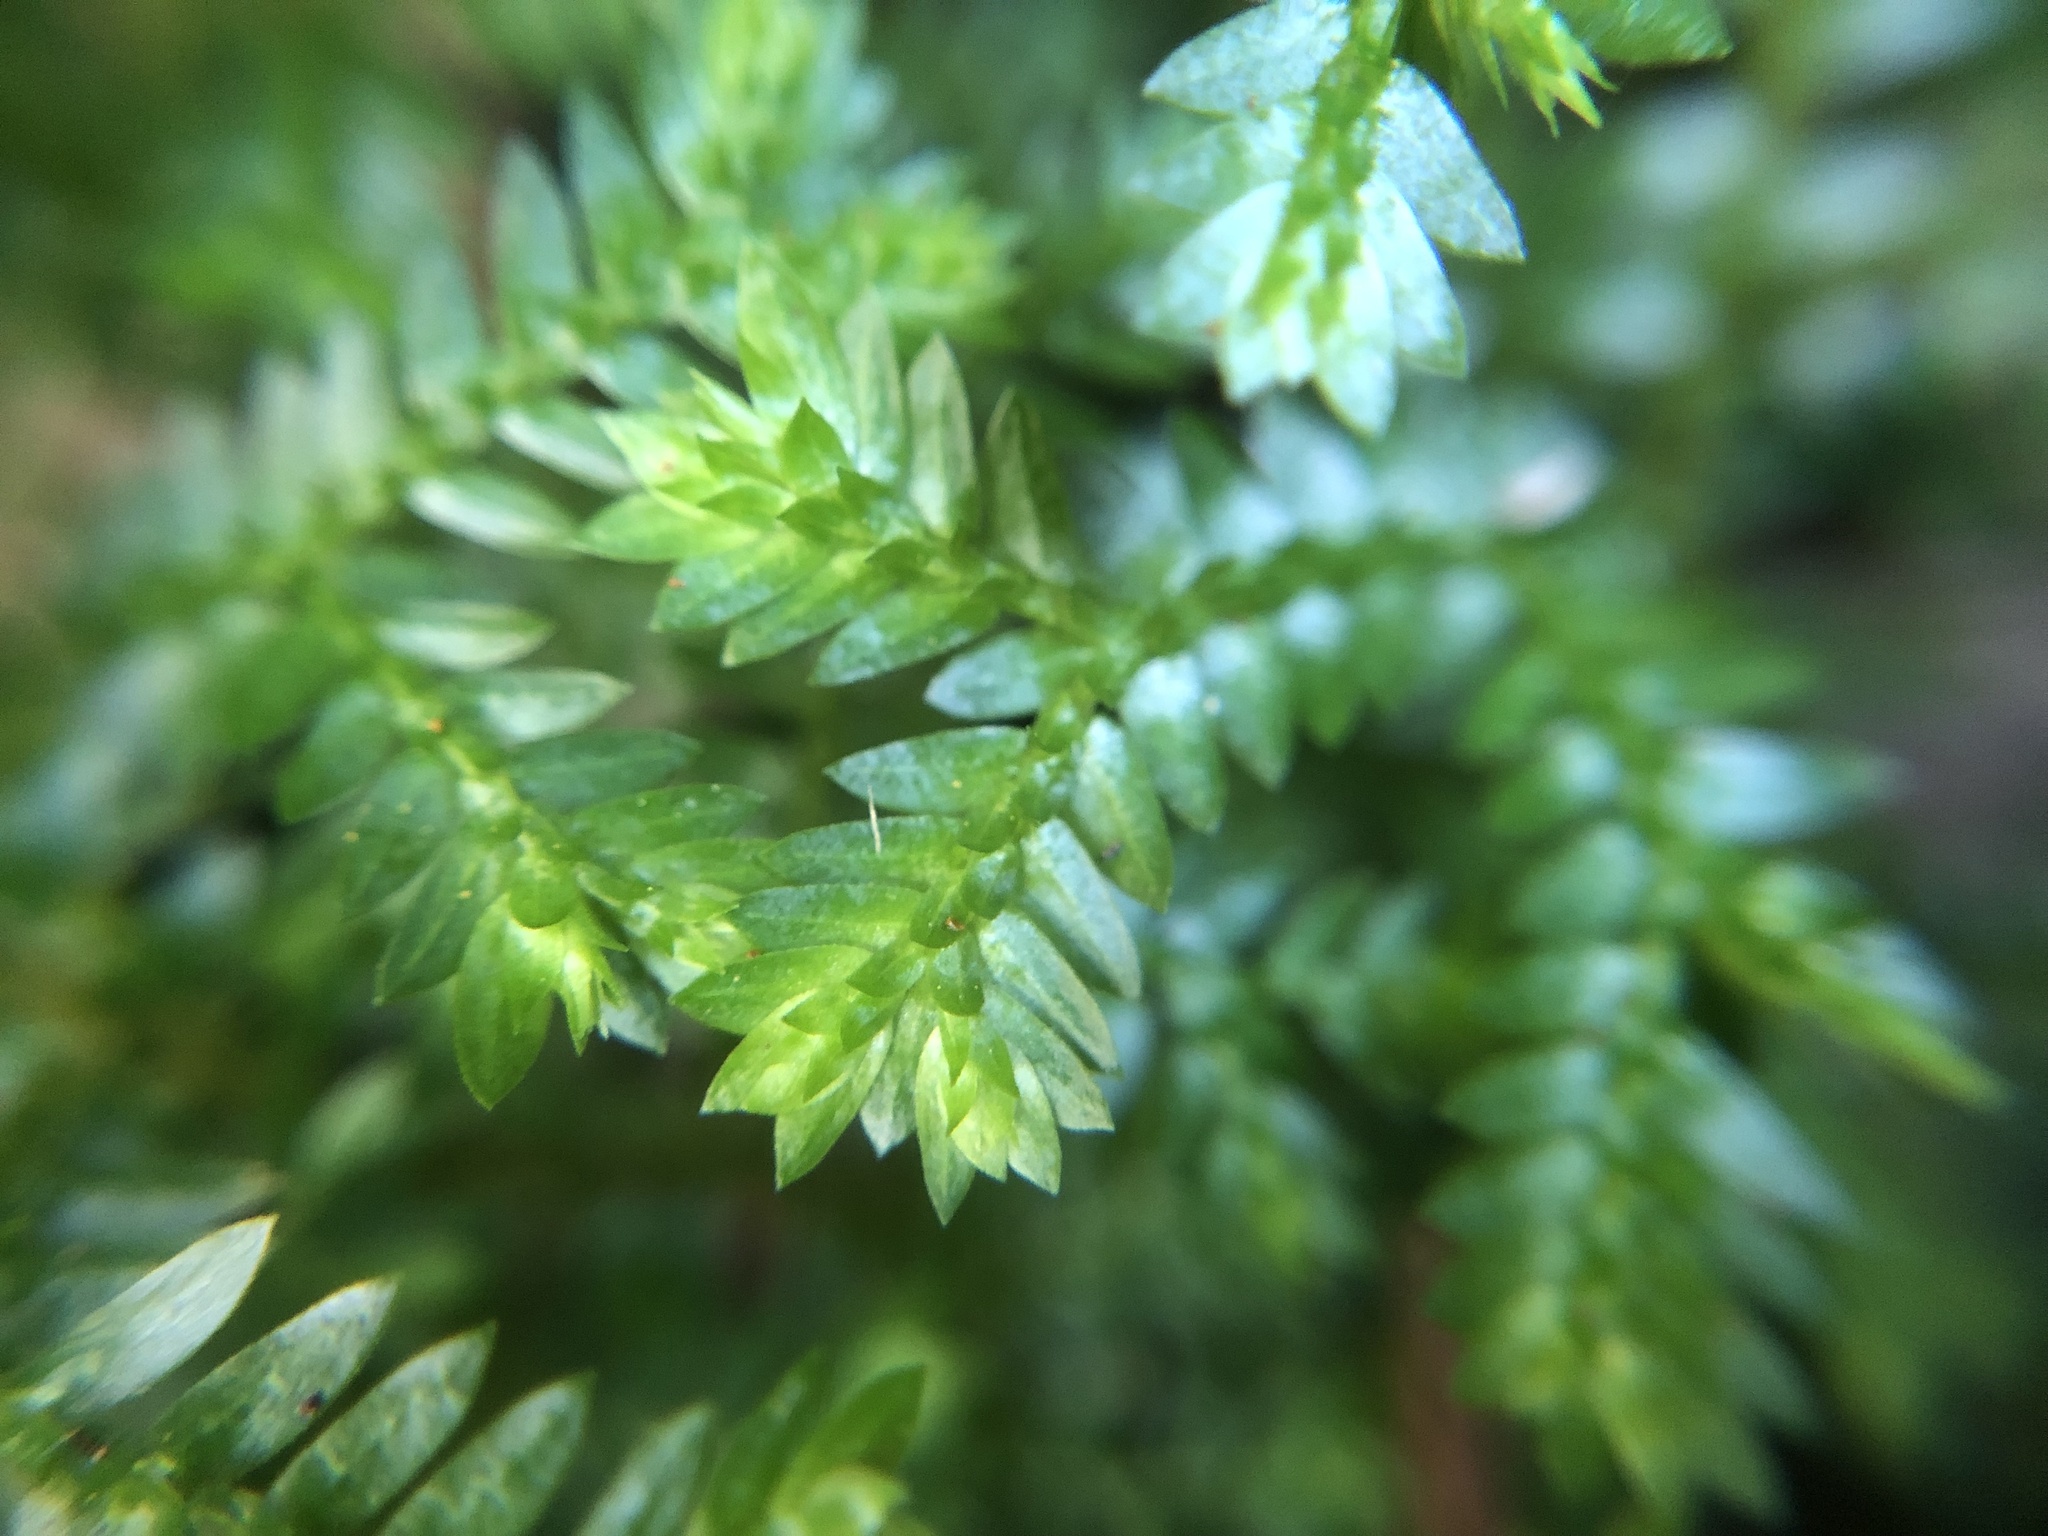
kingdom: Plantae
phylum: Tracheophyta
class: Lycopodiopsida
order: Selaginellales
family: Selaginellaceae
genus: Selaginella
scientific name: Selaginella kraussiana
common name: Krauss' spikemoss
